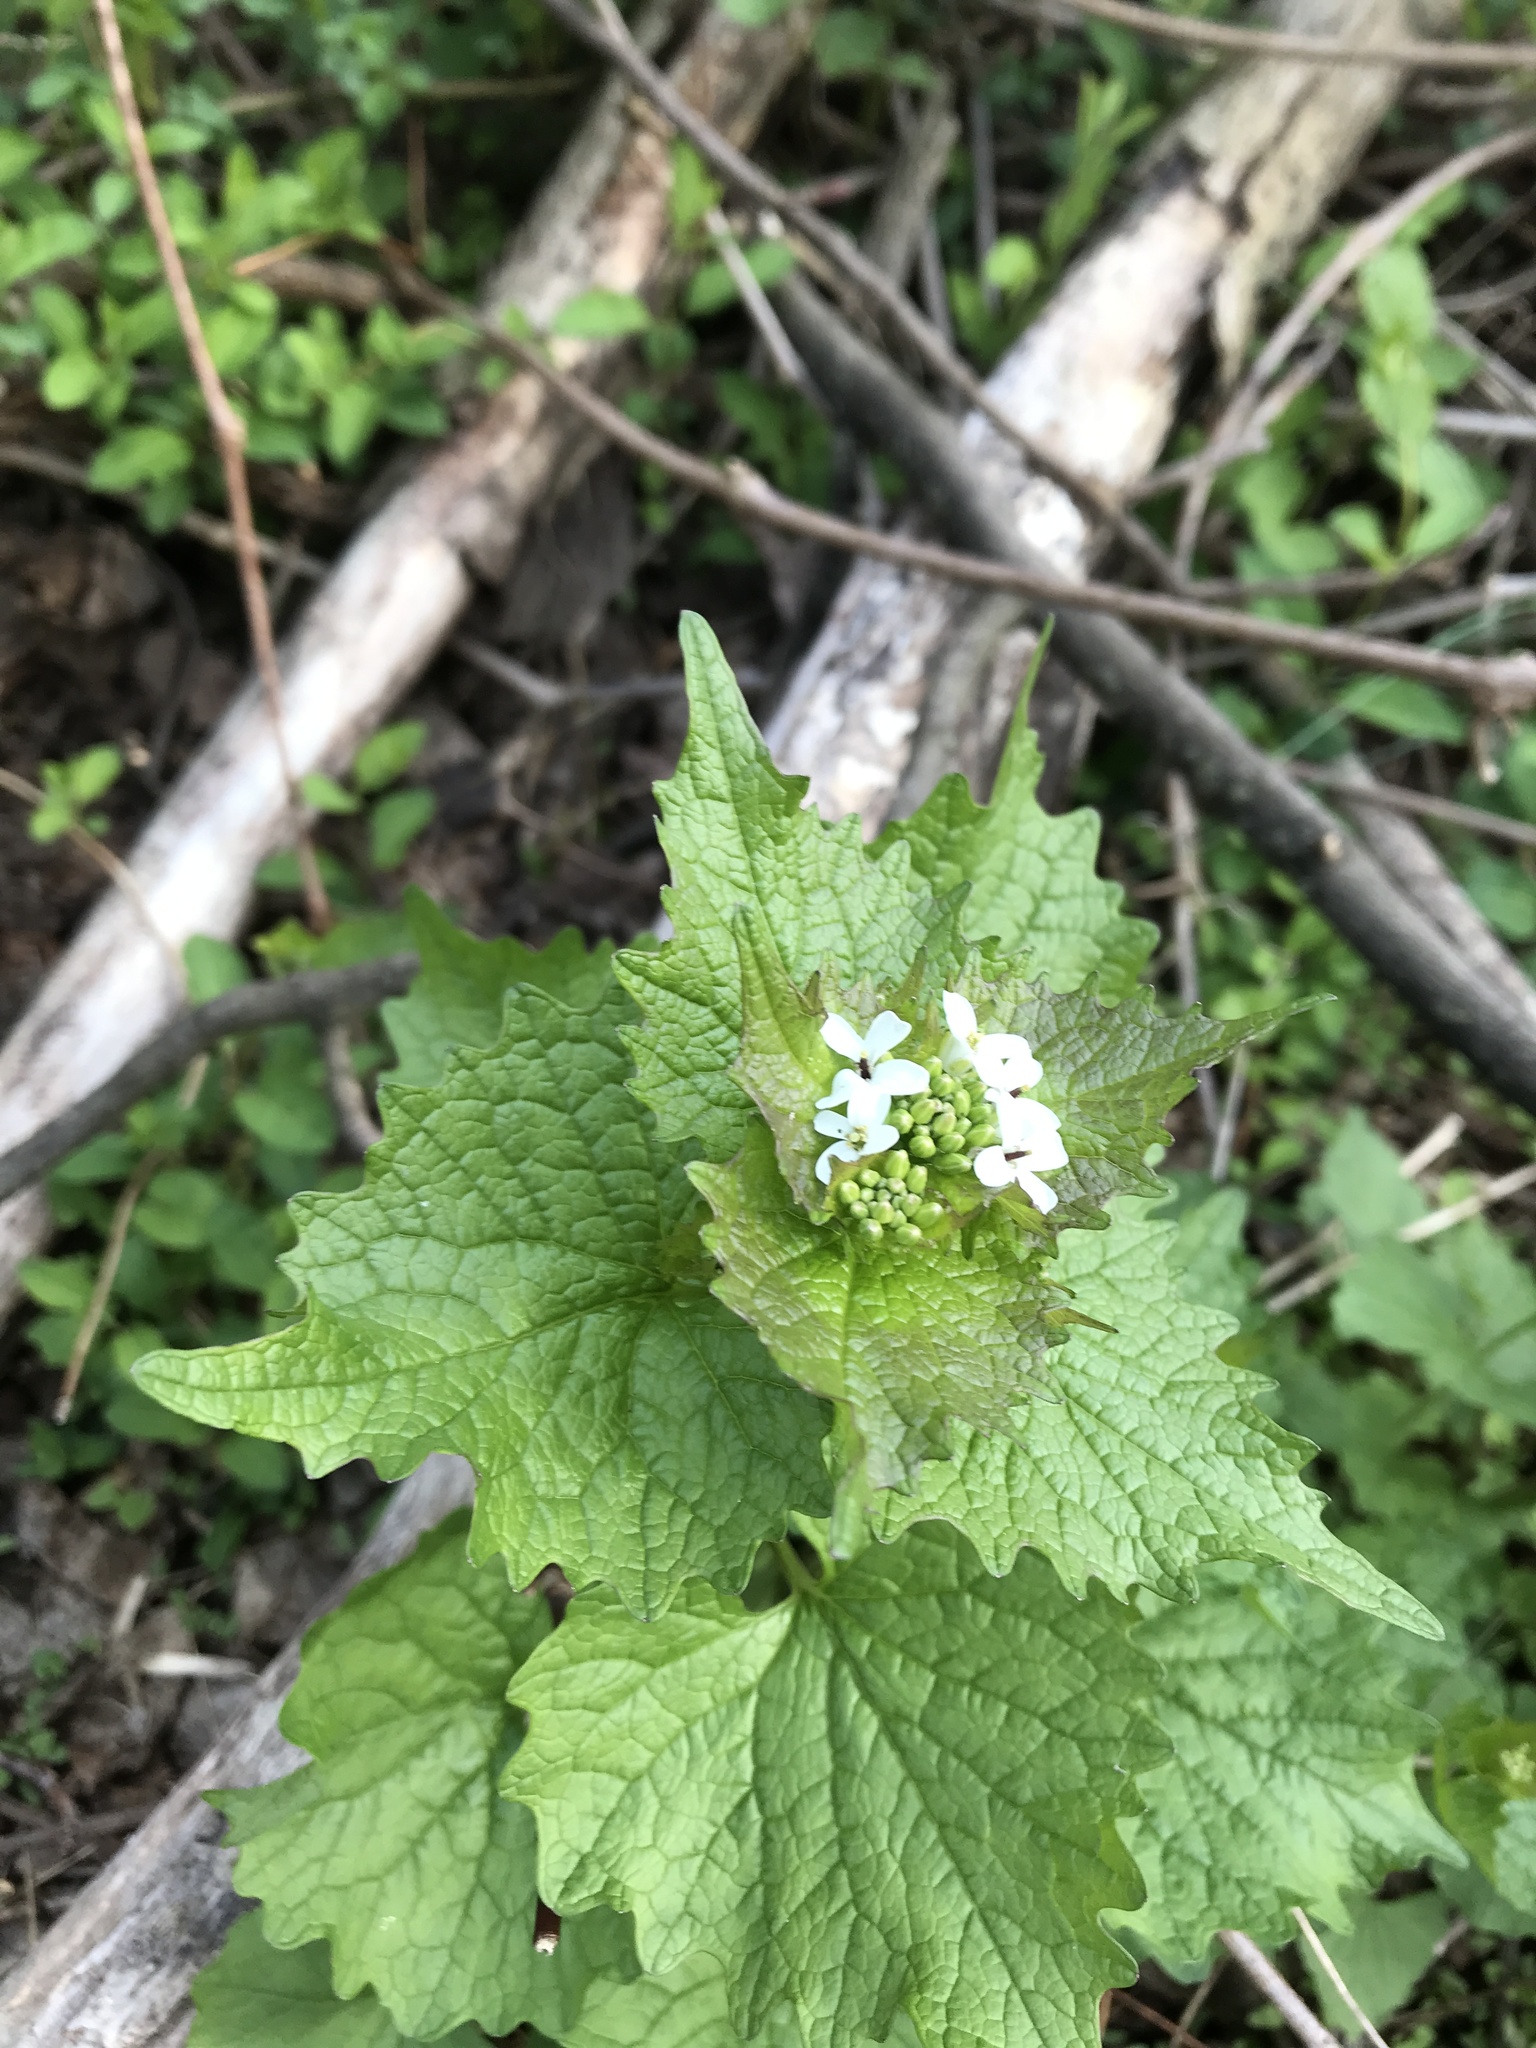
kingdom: Plantae
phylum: Tracheophyta
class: Magnoliopsida
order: Brassicales
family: Brassicaceae
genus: Alliaria
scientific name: Alliaria petiolata
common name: Garlic mustard
